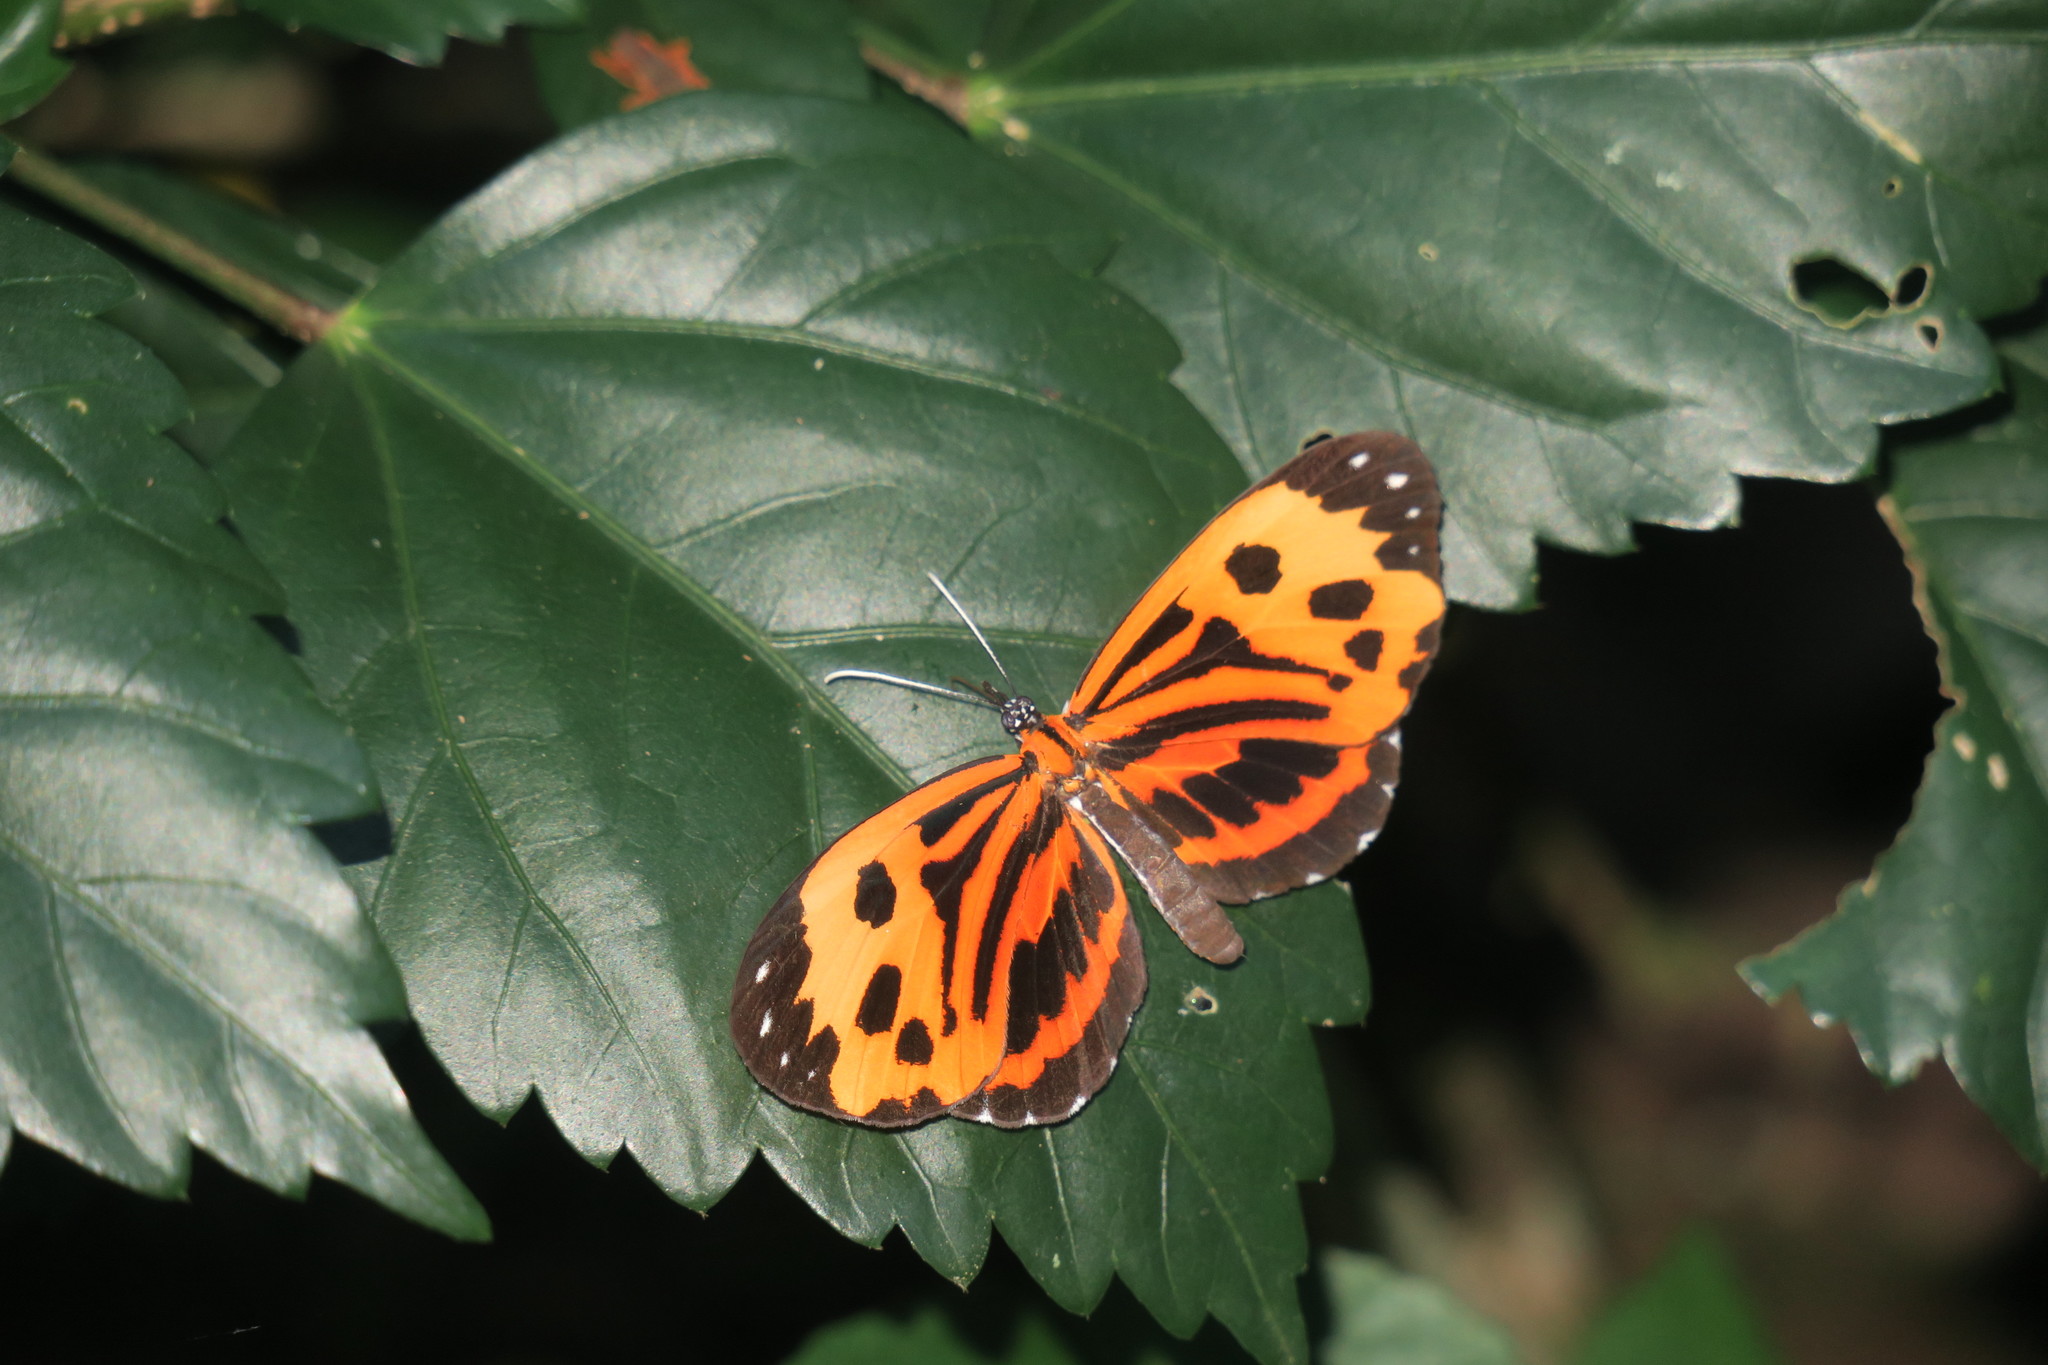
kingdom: Animalia
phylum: Arthropoda
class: Insecta
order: Lepidoptera
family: Riodinidae
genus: Stalachtis
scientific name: Stalachtis calliope
